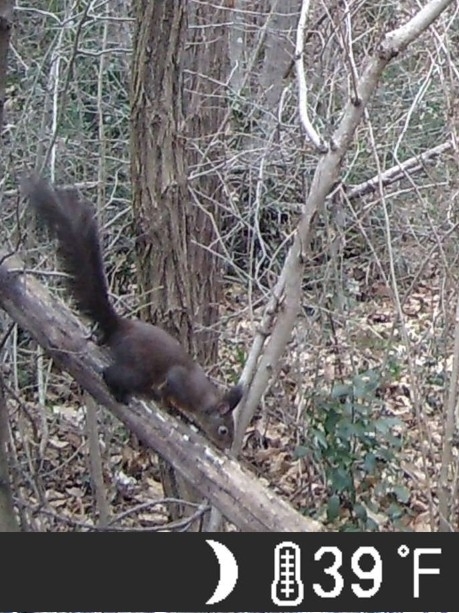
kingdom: Animalia
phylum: Chordata
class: Mammalia
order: Rodentia
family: Sciuridae
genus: Sciurus
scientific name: Sciurus vulgaris
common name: Eurasian red squirrel
